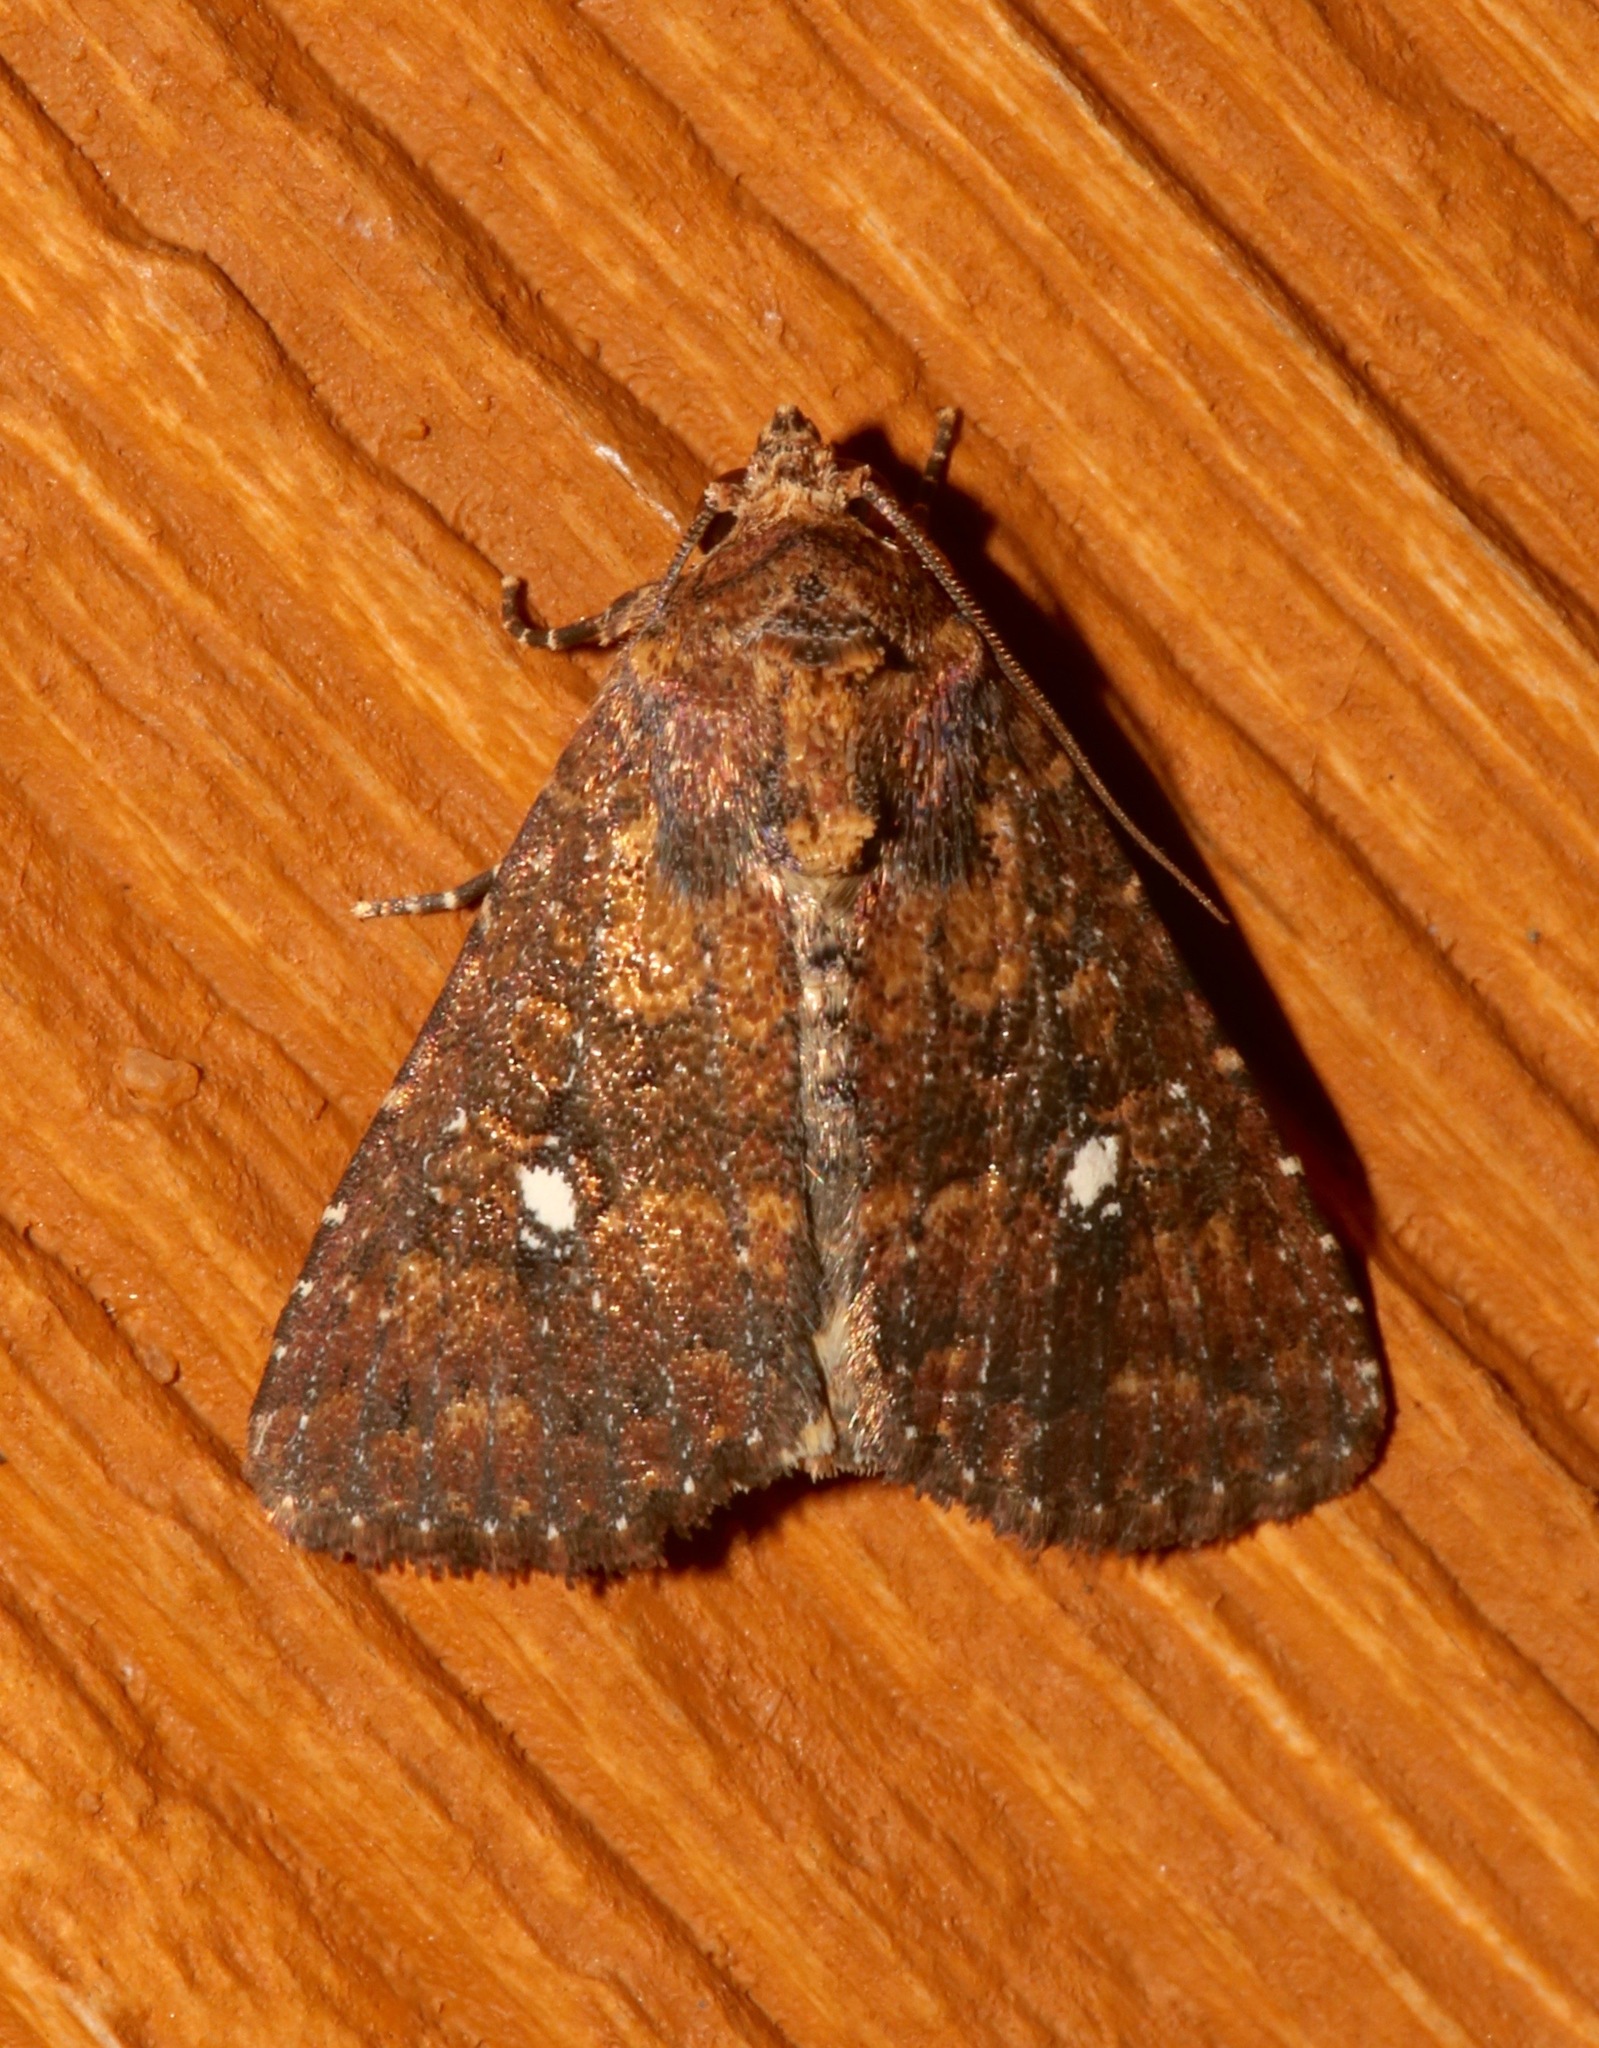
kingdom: Animalia
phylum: Arthropoda
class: Insecta
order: Lepidoptera
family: Noctuidae
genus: Condica
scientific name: Condica mobilis
